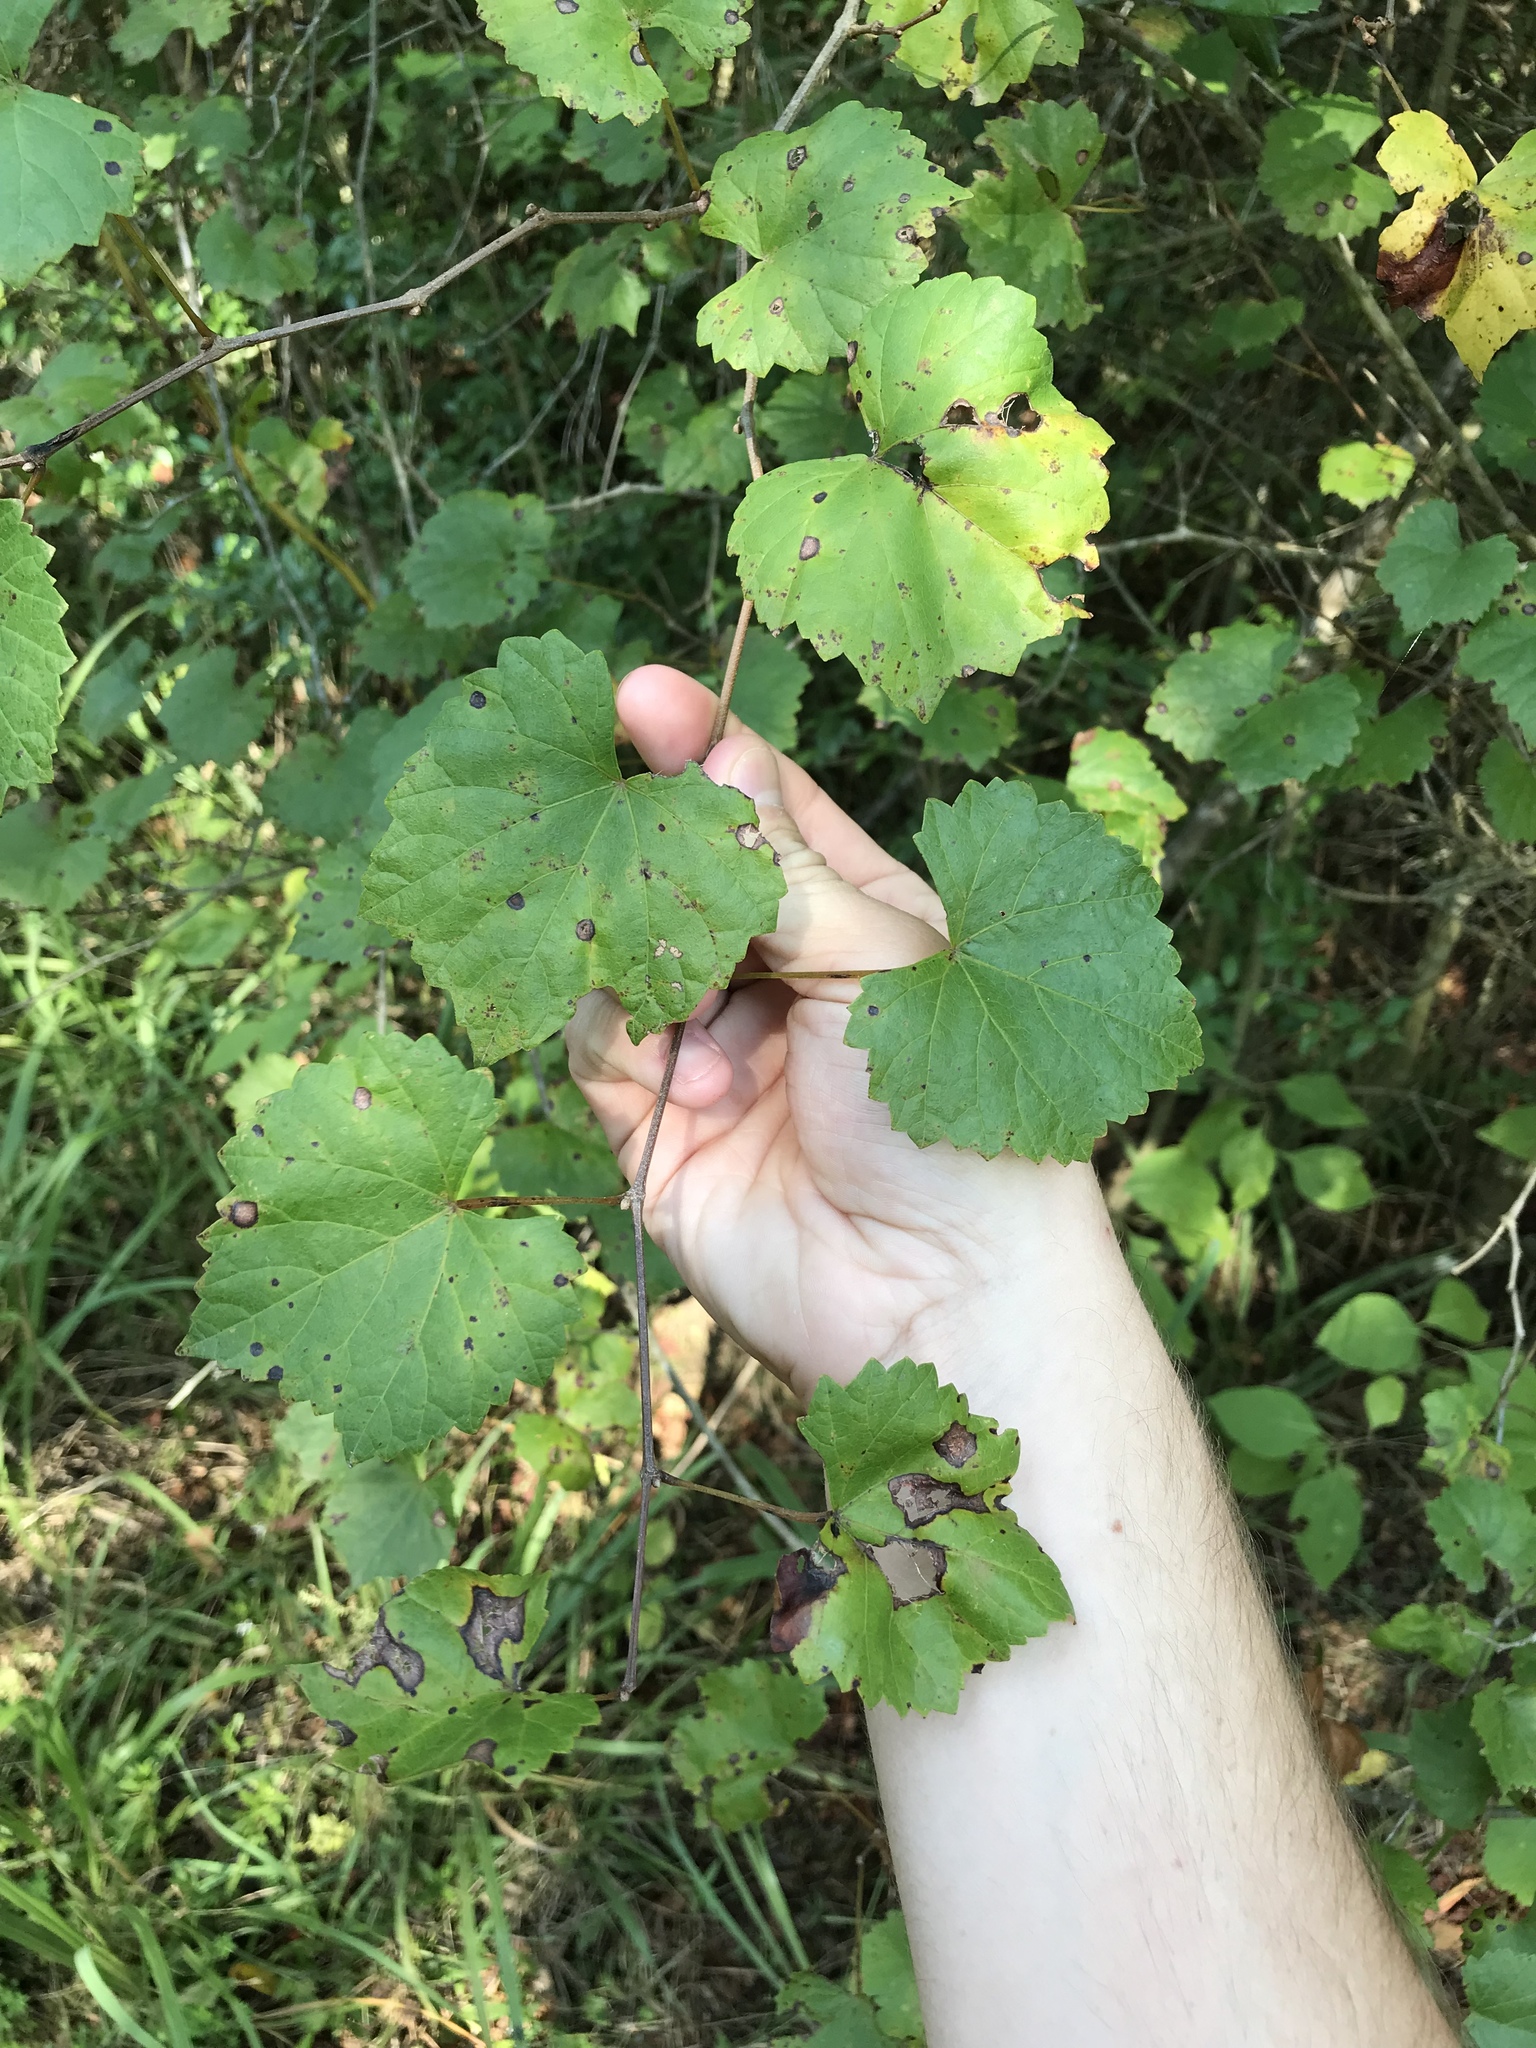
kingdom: Plantae
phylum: Tracheophyta
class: Magnoliopsida
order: Vitales
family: Vitaceae
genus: Vitis
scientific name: Vitis rotundifolia
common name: Muscadine grape
